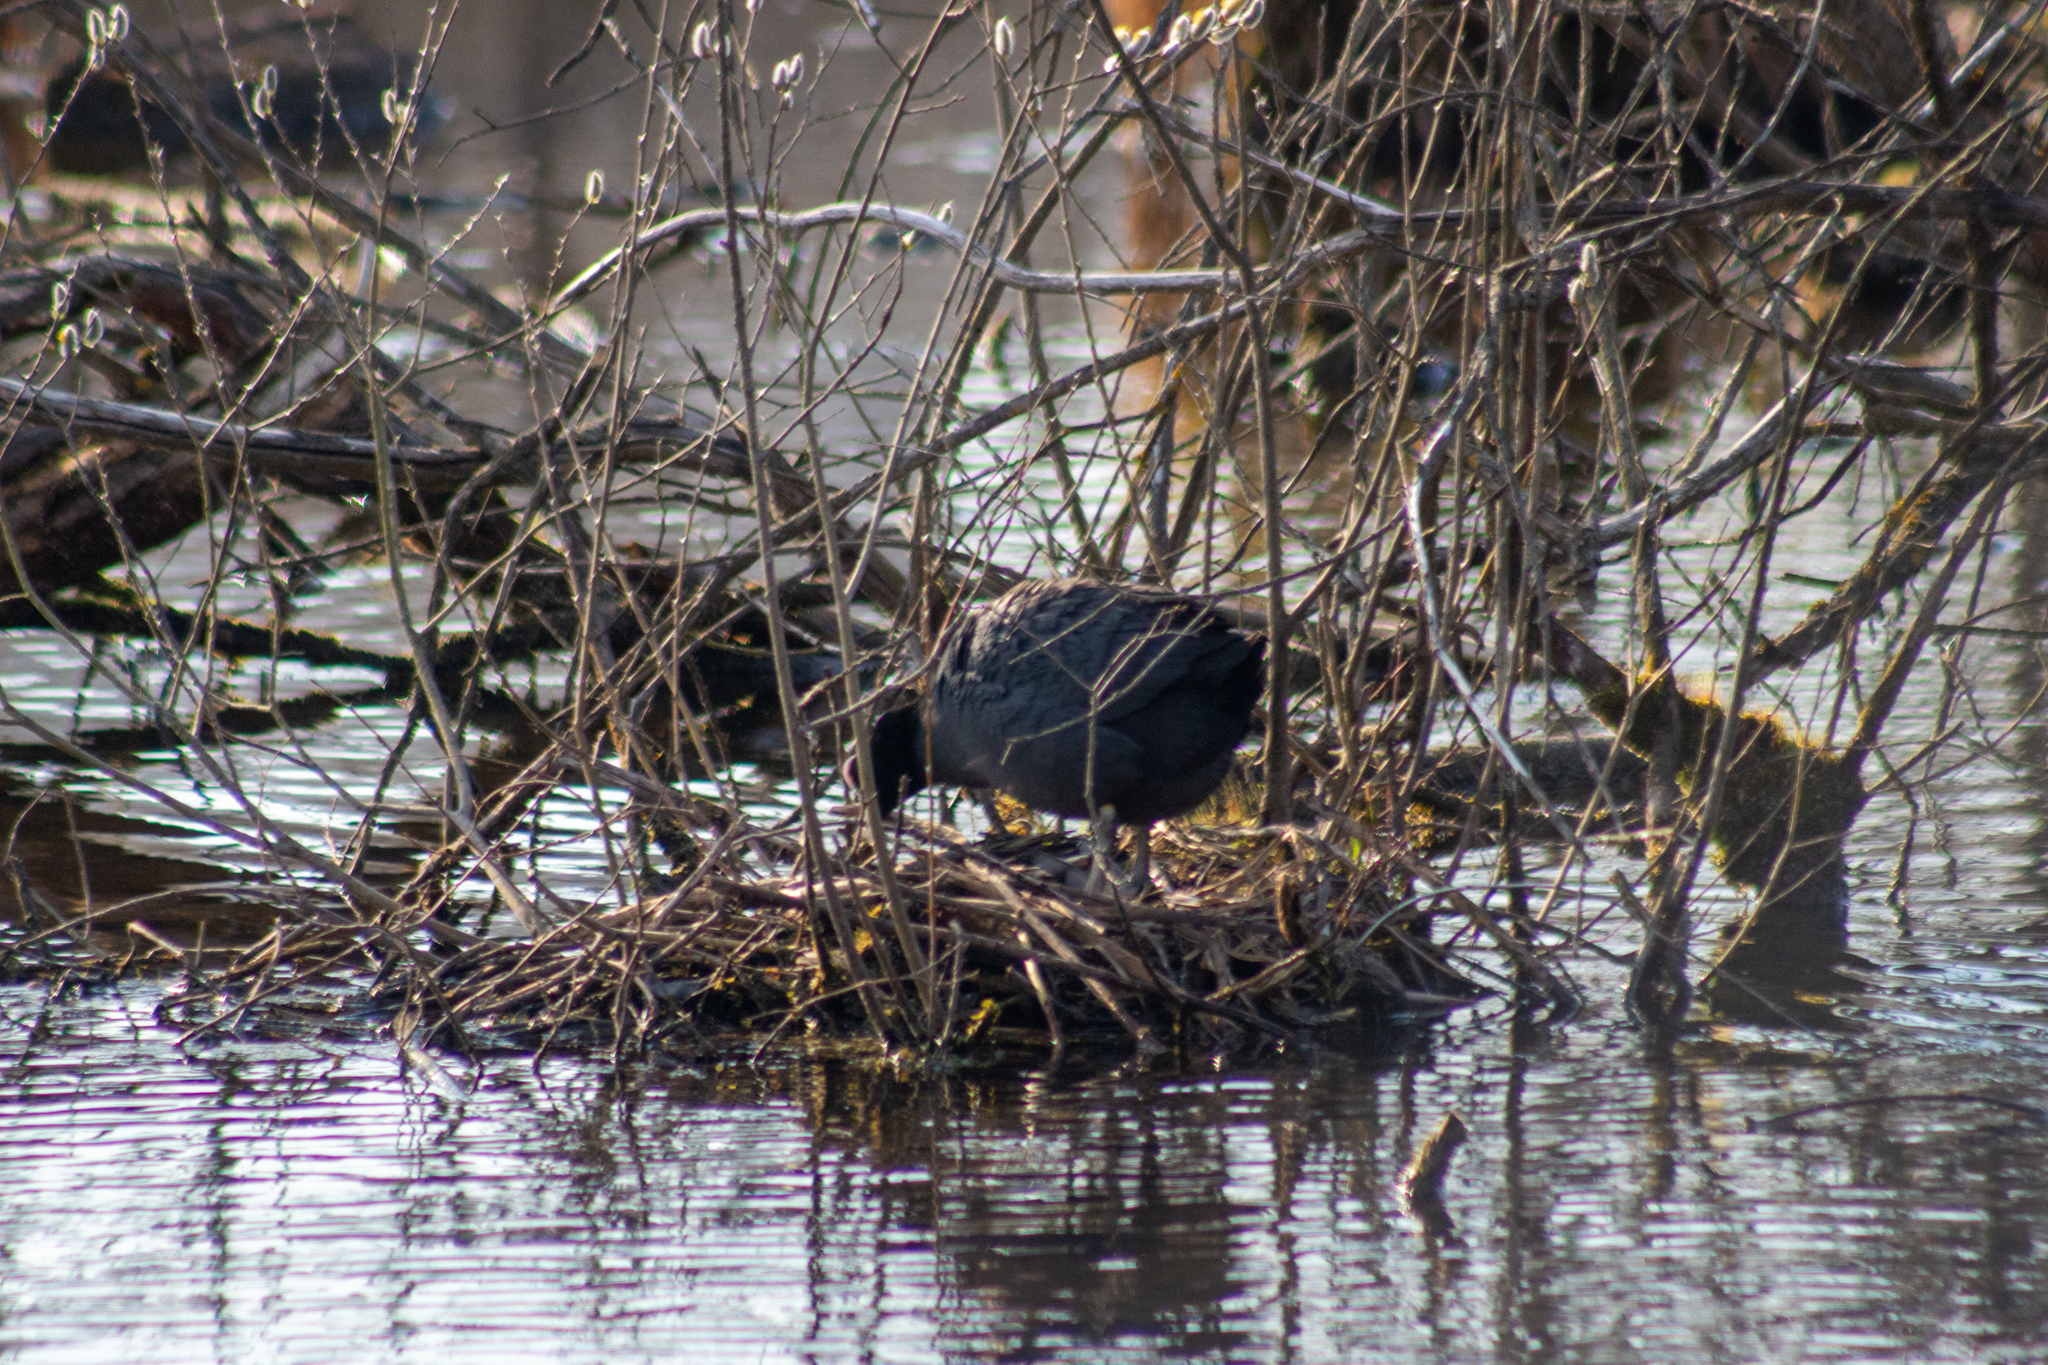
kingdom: Animalia
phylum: Chordata
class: Aves
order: Gruiformes
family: Rallidae
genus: Fulica
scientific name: Fulica atra
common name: Eurasian coot
